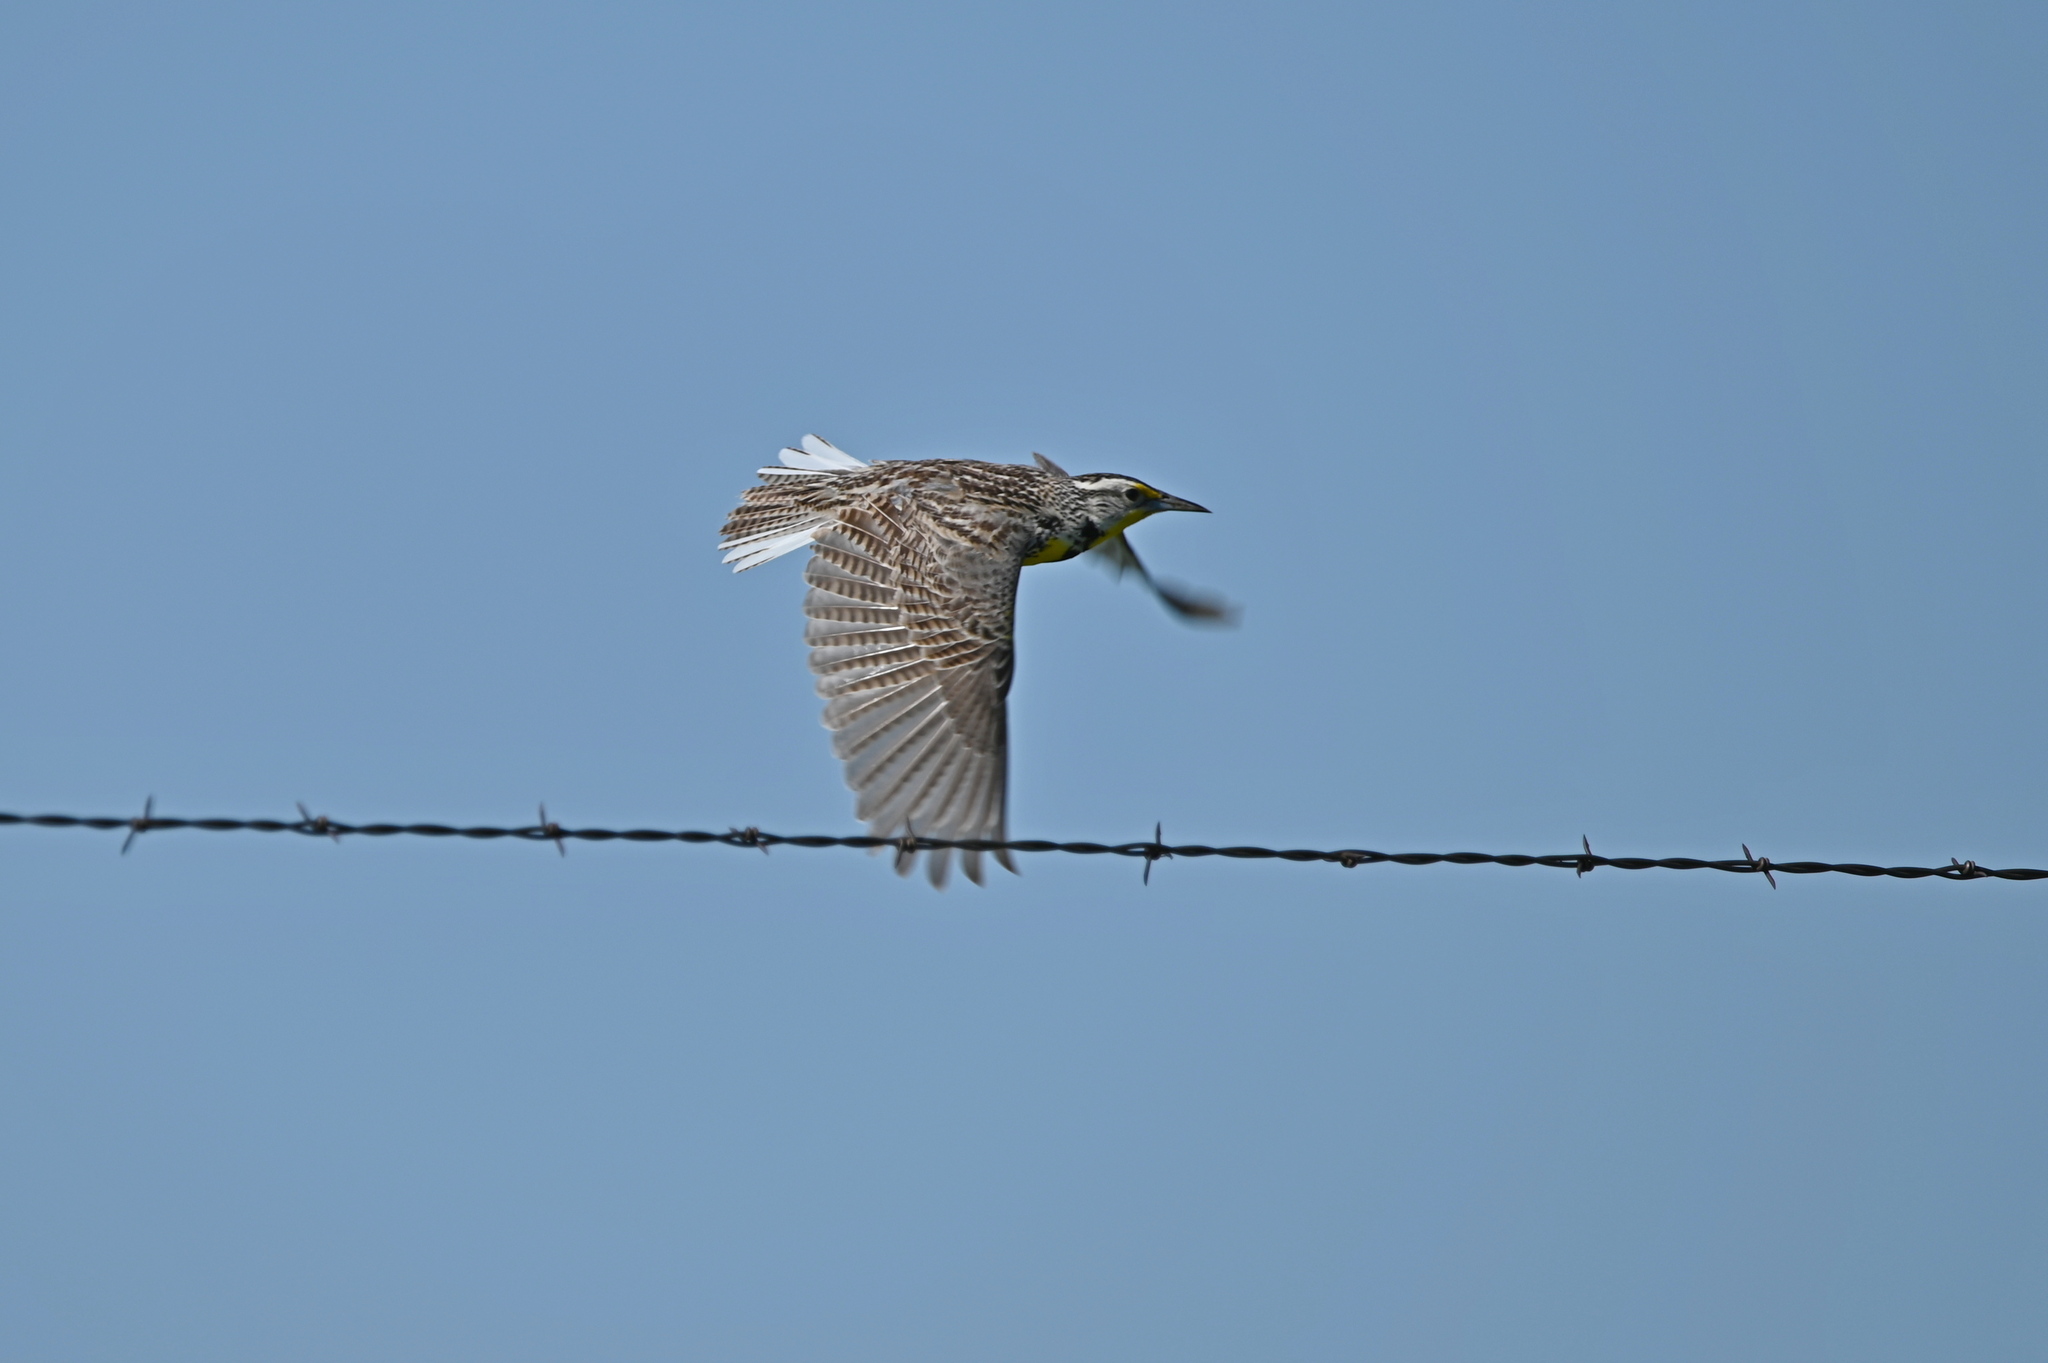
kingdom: Animalia
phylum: Chordata
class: Aves
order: Passeriformes
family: Icteridae
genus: Sturnella
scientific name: Sturnella neglecta
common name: Western meadowlark
